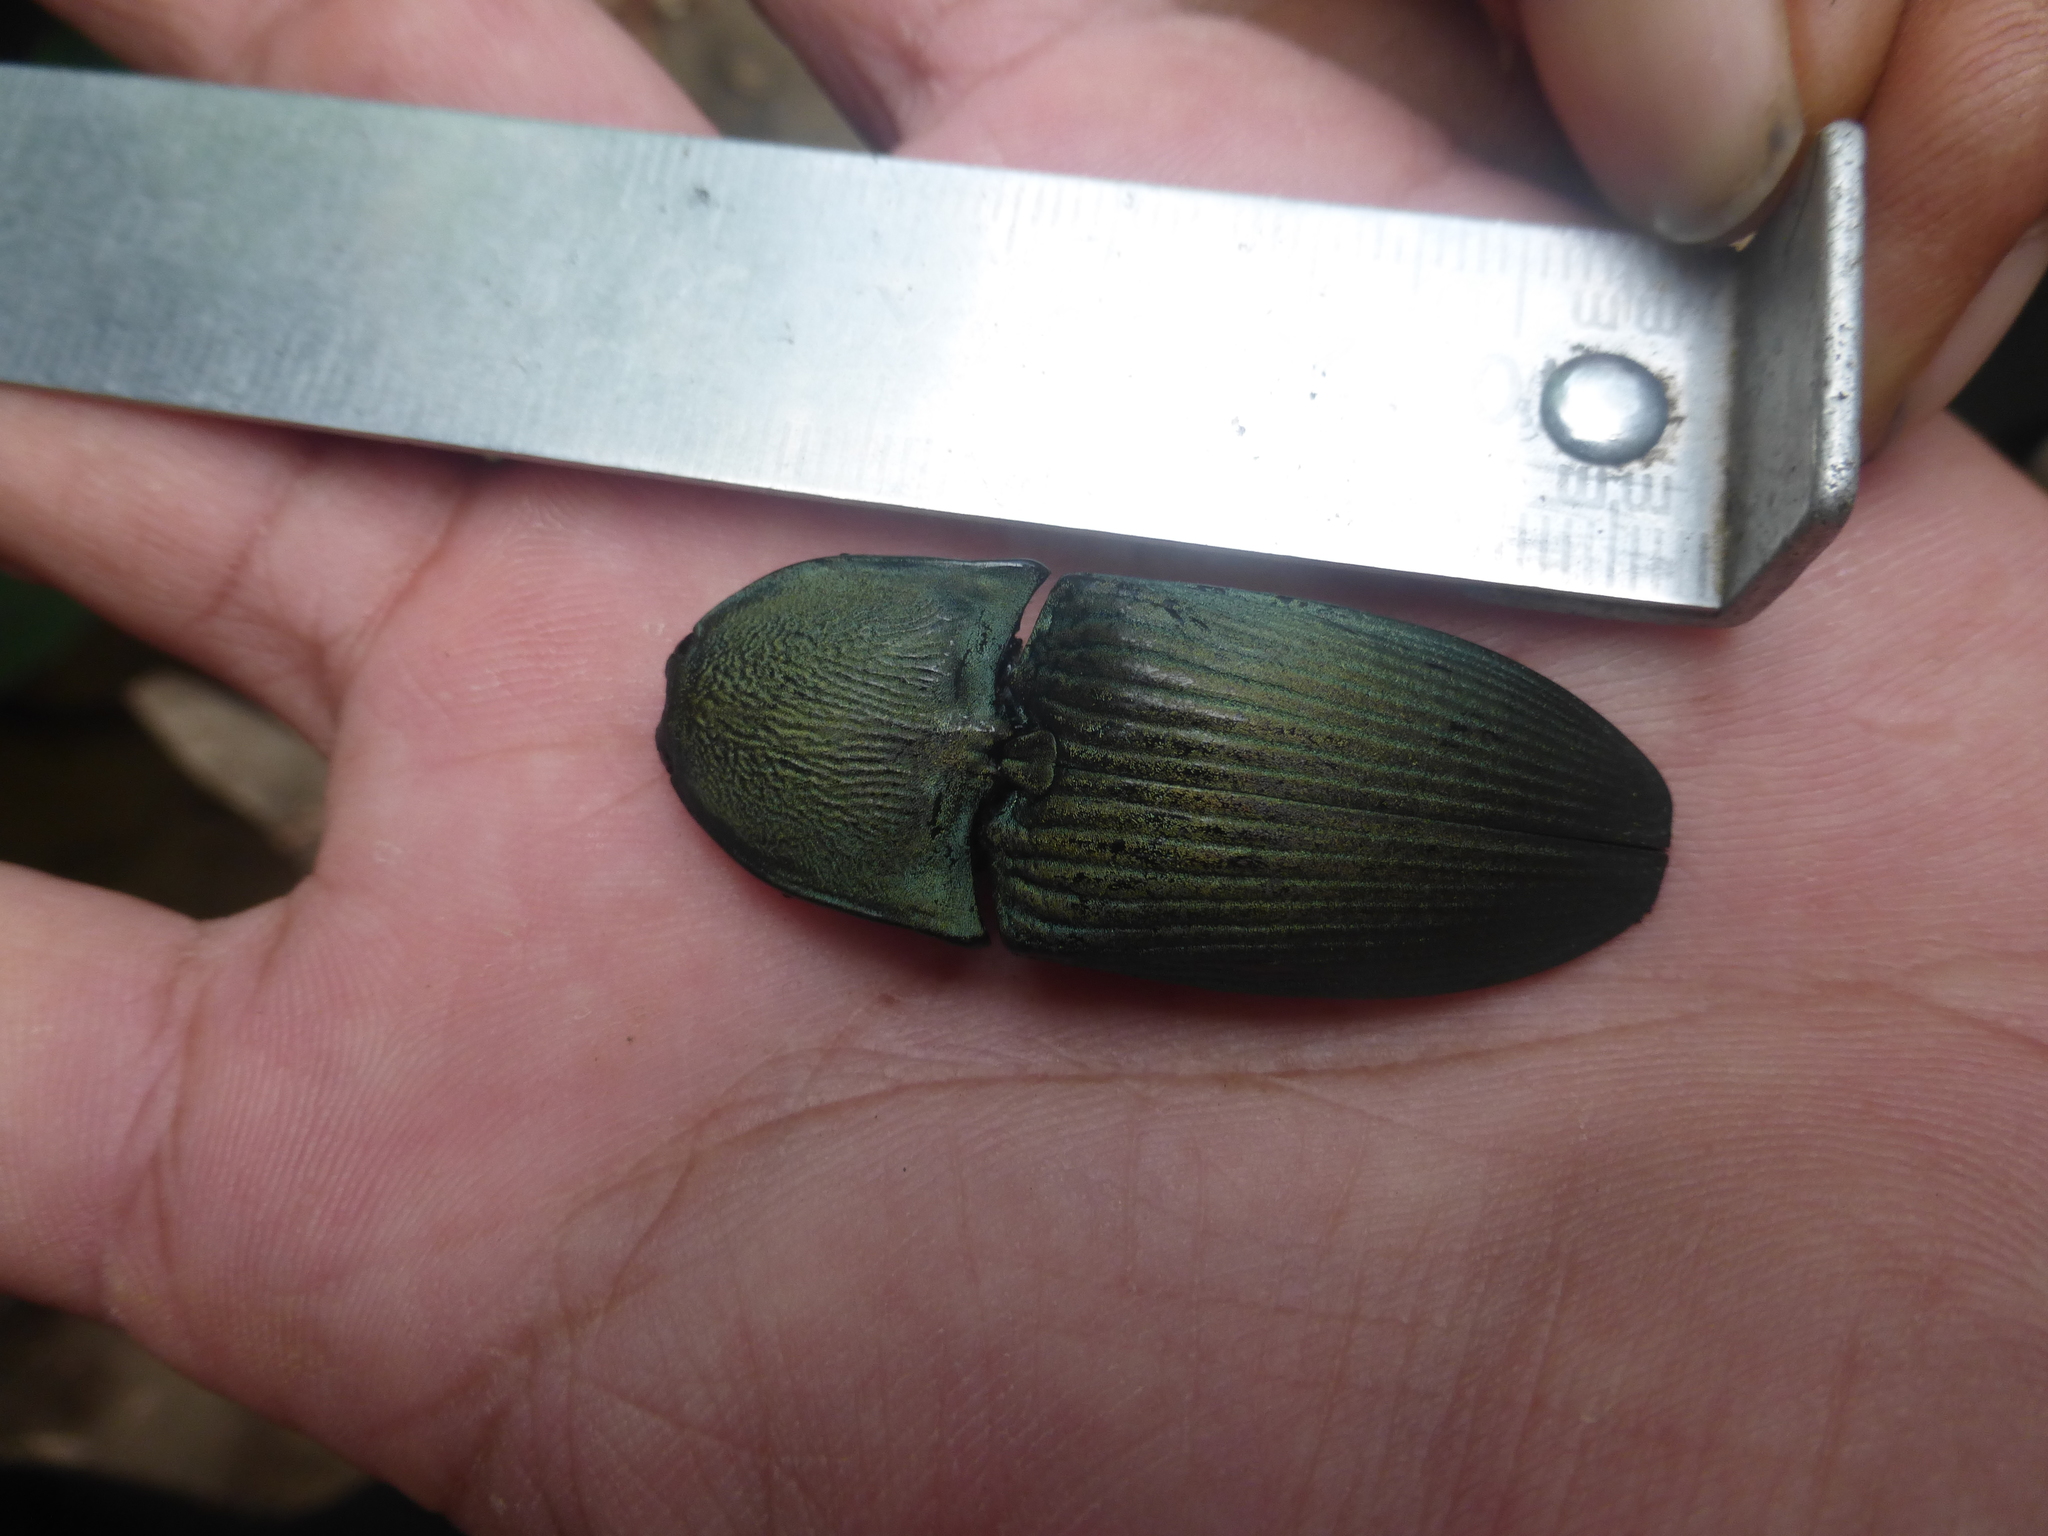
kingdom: Animalia
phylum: Arthropoda
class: Insecta
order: Coleoptera
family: Elateridae
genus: Chalcolepidius
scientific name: Chalcolepidius lacordairei
